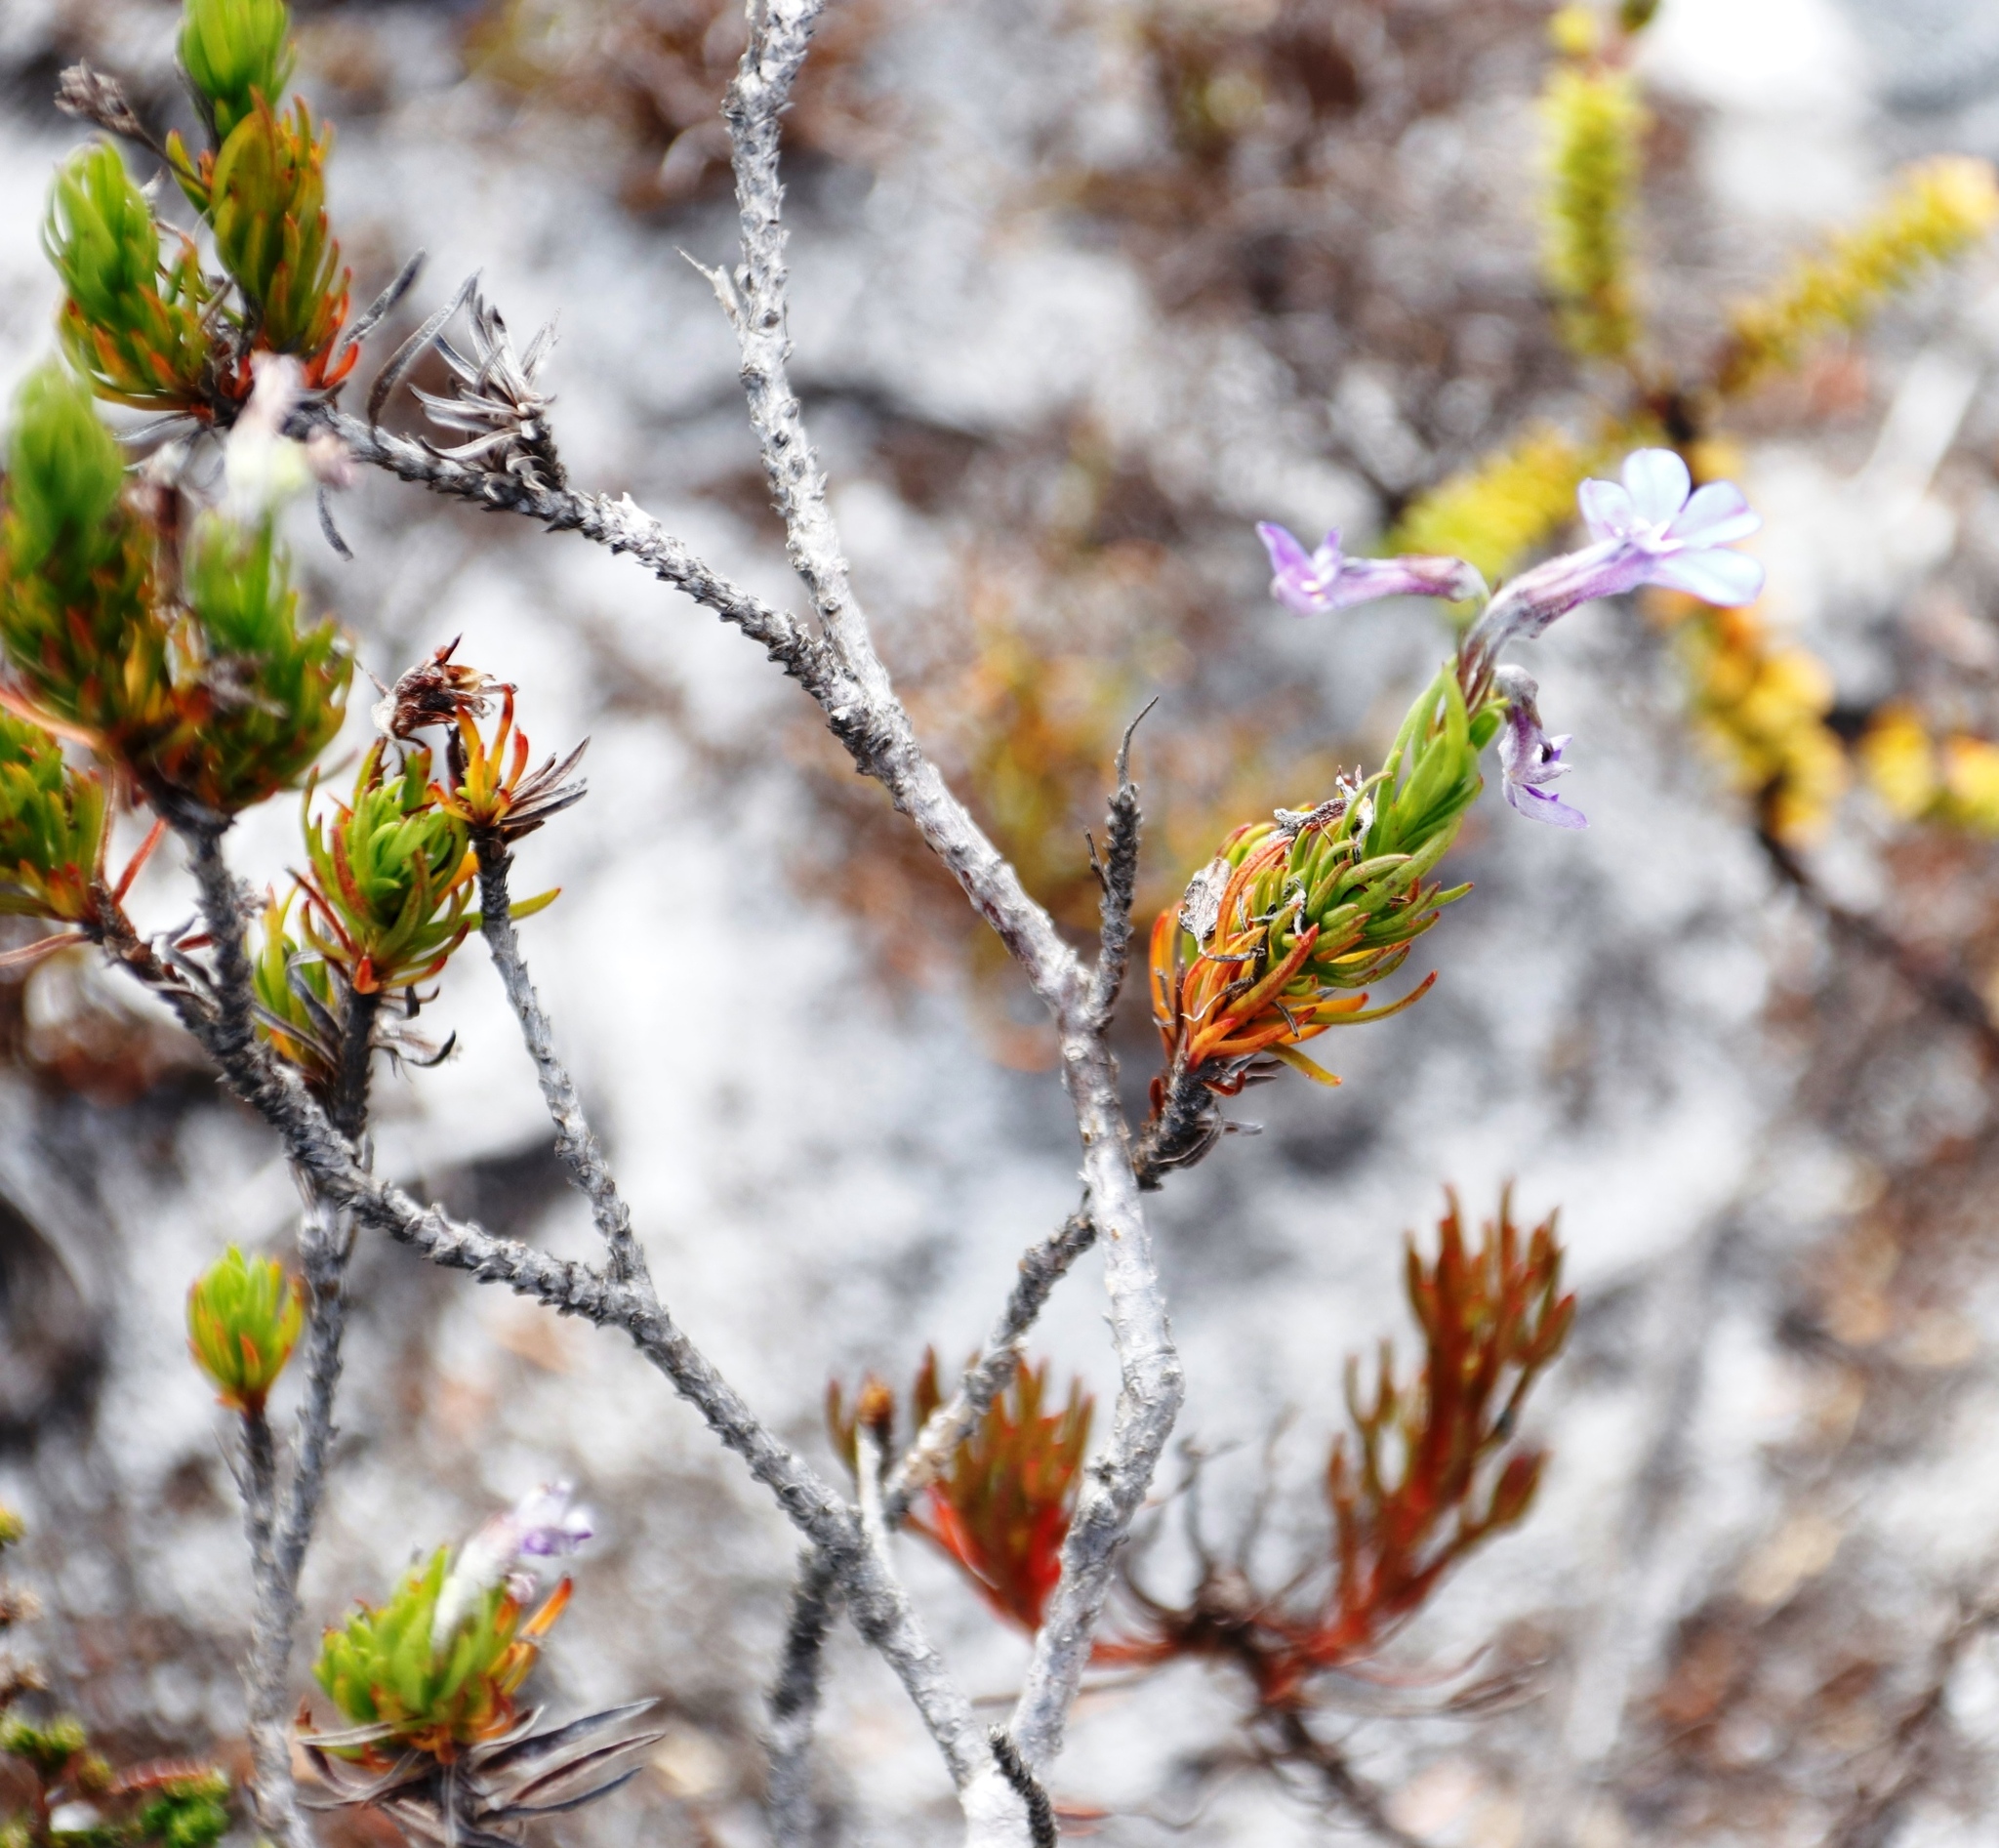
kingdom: Plantae
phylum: Tracheophyta
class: Magnoliopsida
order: Asterales
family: Campanulaceae
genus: Lobelia
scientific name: Lobelia pinifolia
